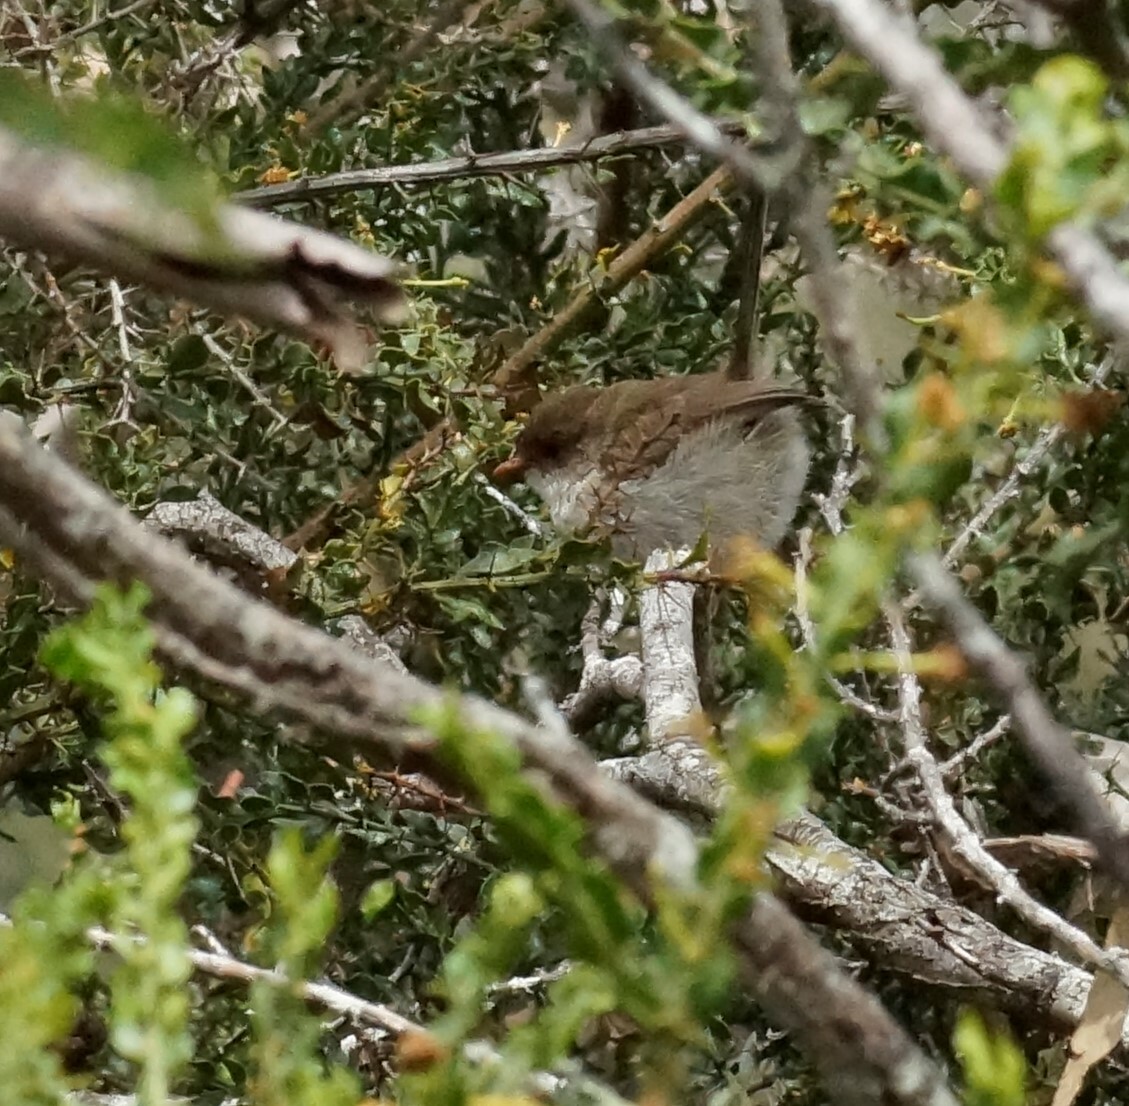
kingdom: Animalia
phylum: Chordata
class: Aves
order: Passeriformes
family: Maluridae
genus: Malurus
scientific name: Malurus cyaneus
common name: Superb fairywren
